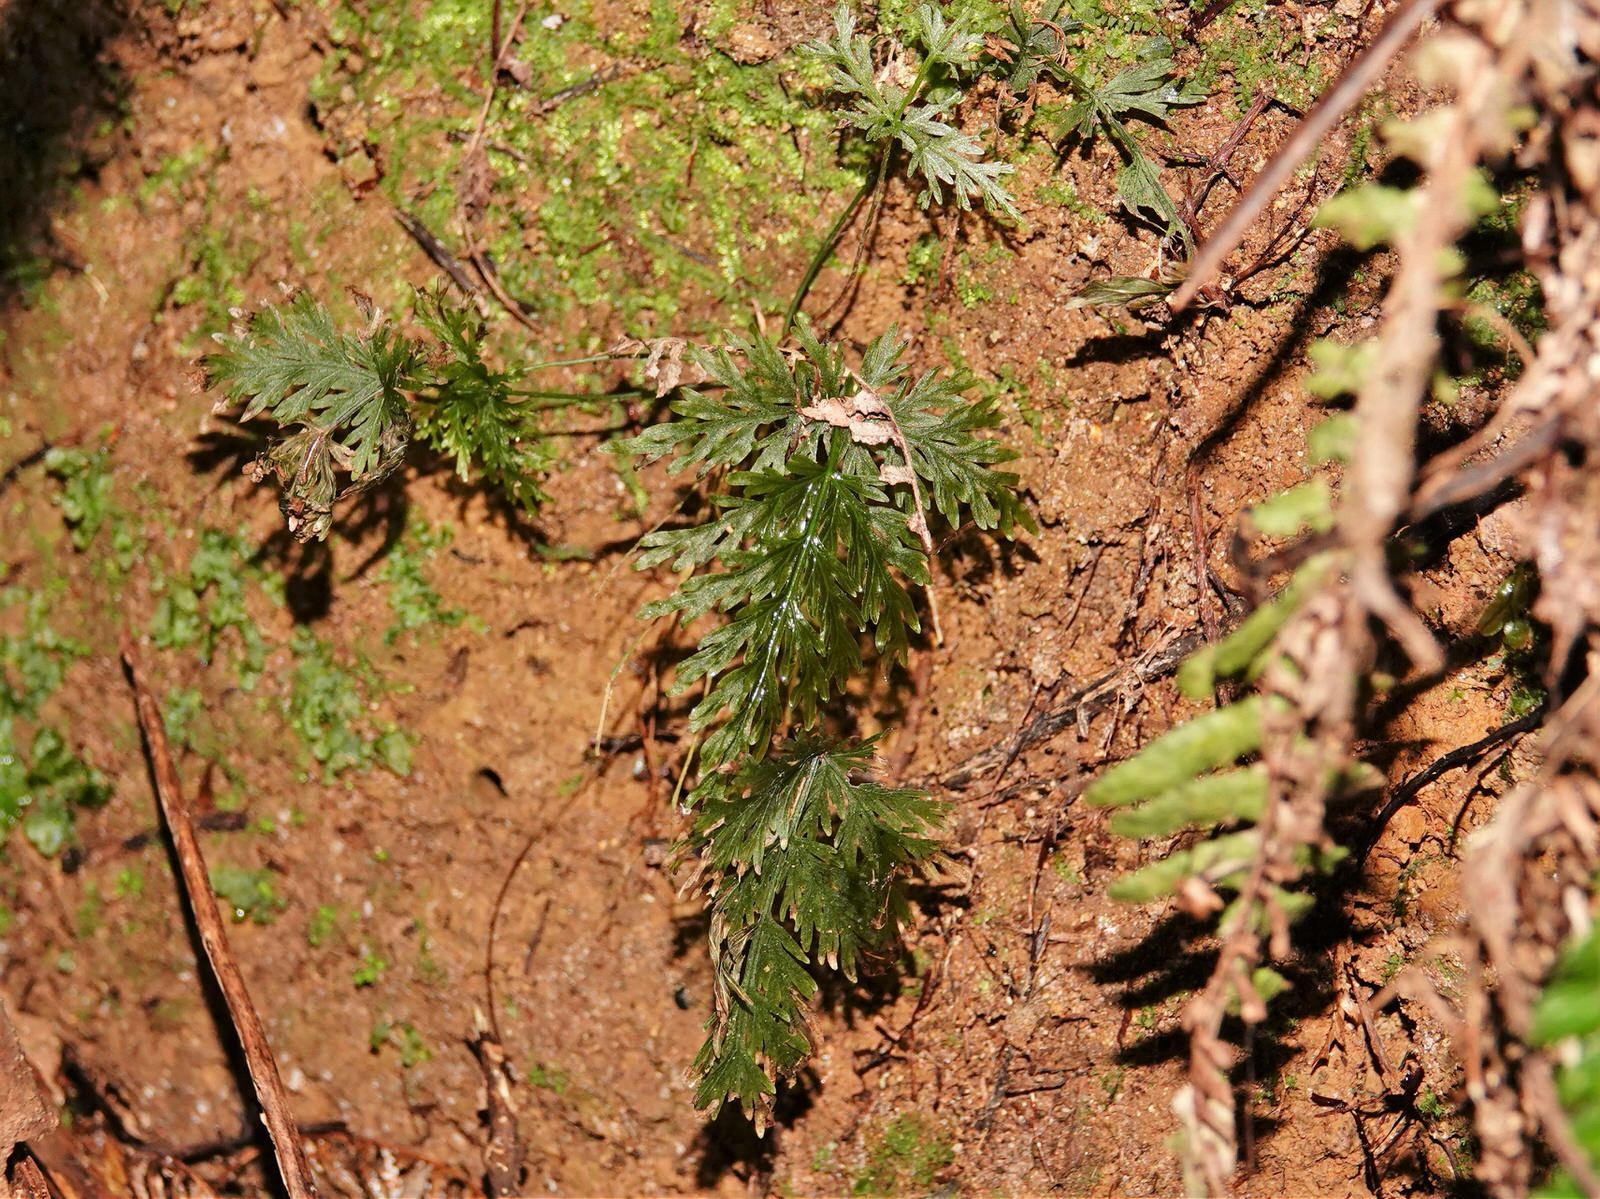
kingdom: Plantae
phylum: Tracheophyta
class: Polypodiopsida
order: Hymenophyllales
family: Hymenophyllaceae
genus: Hymenophyllum
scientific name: Hymenophyllum flabellatum
